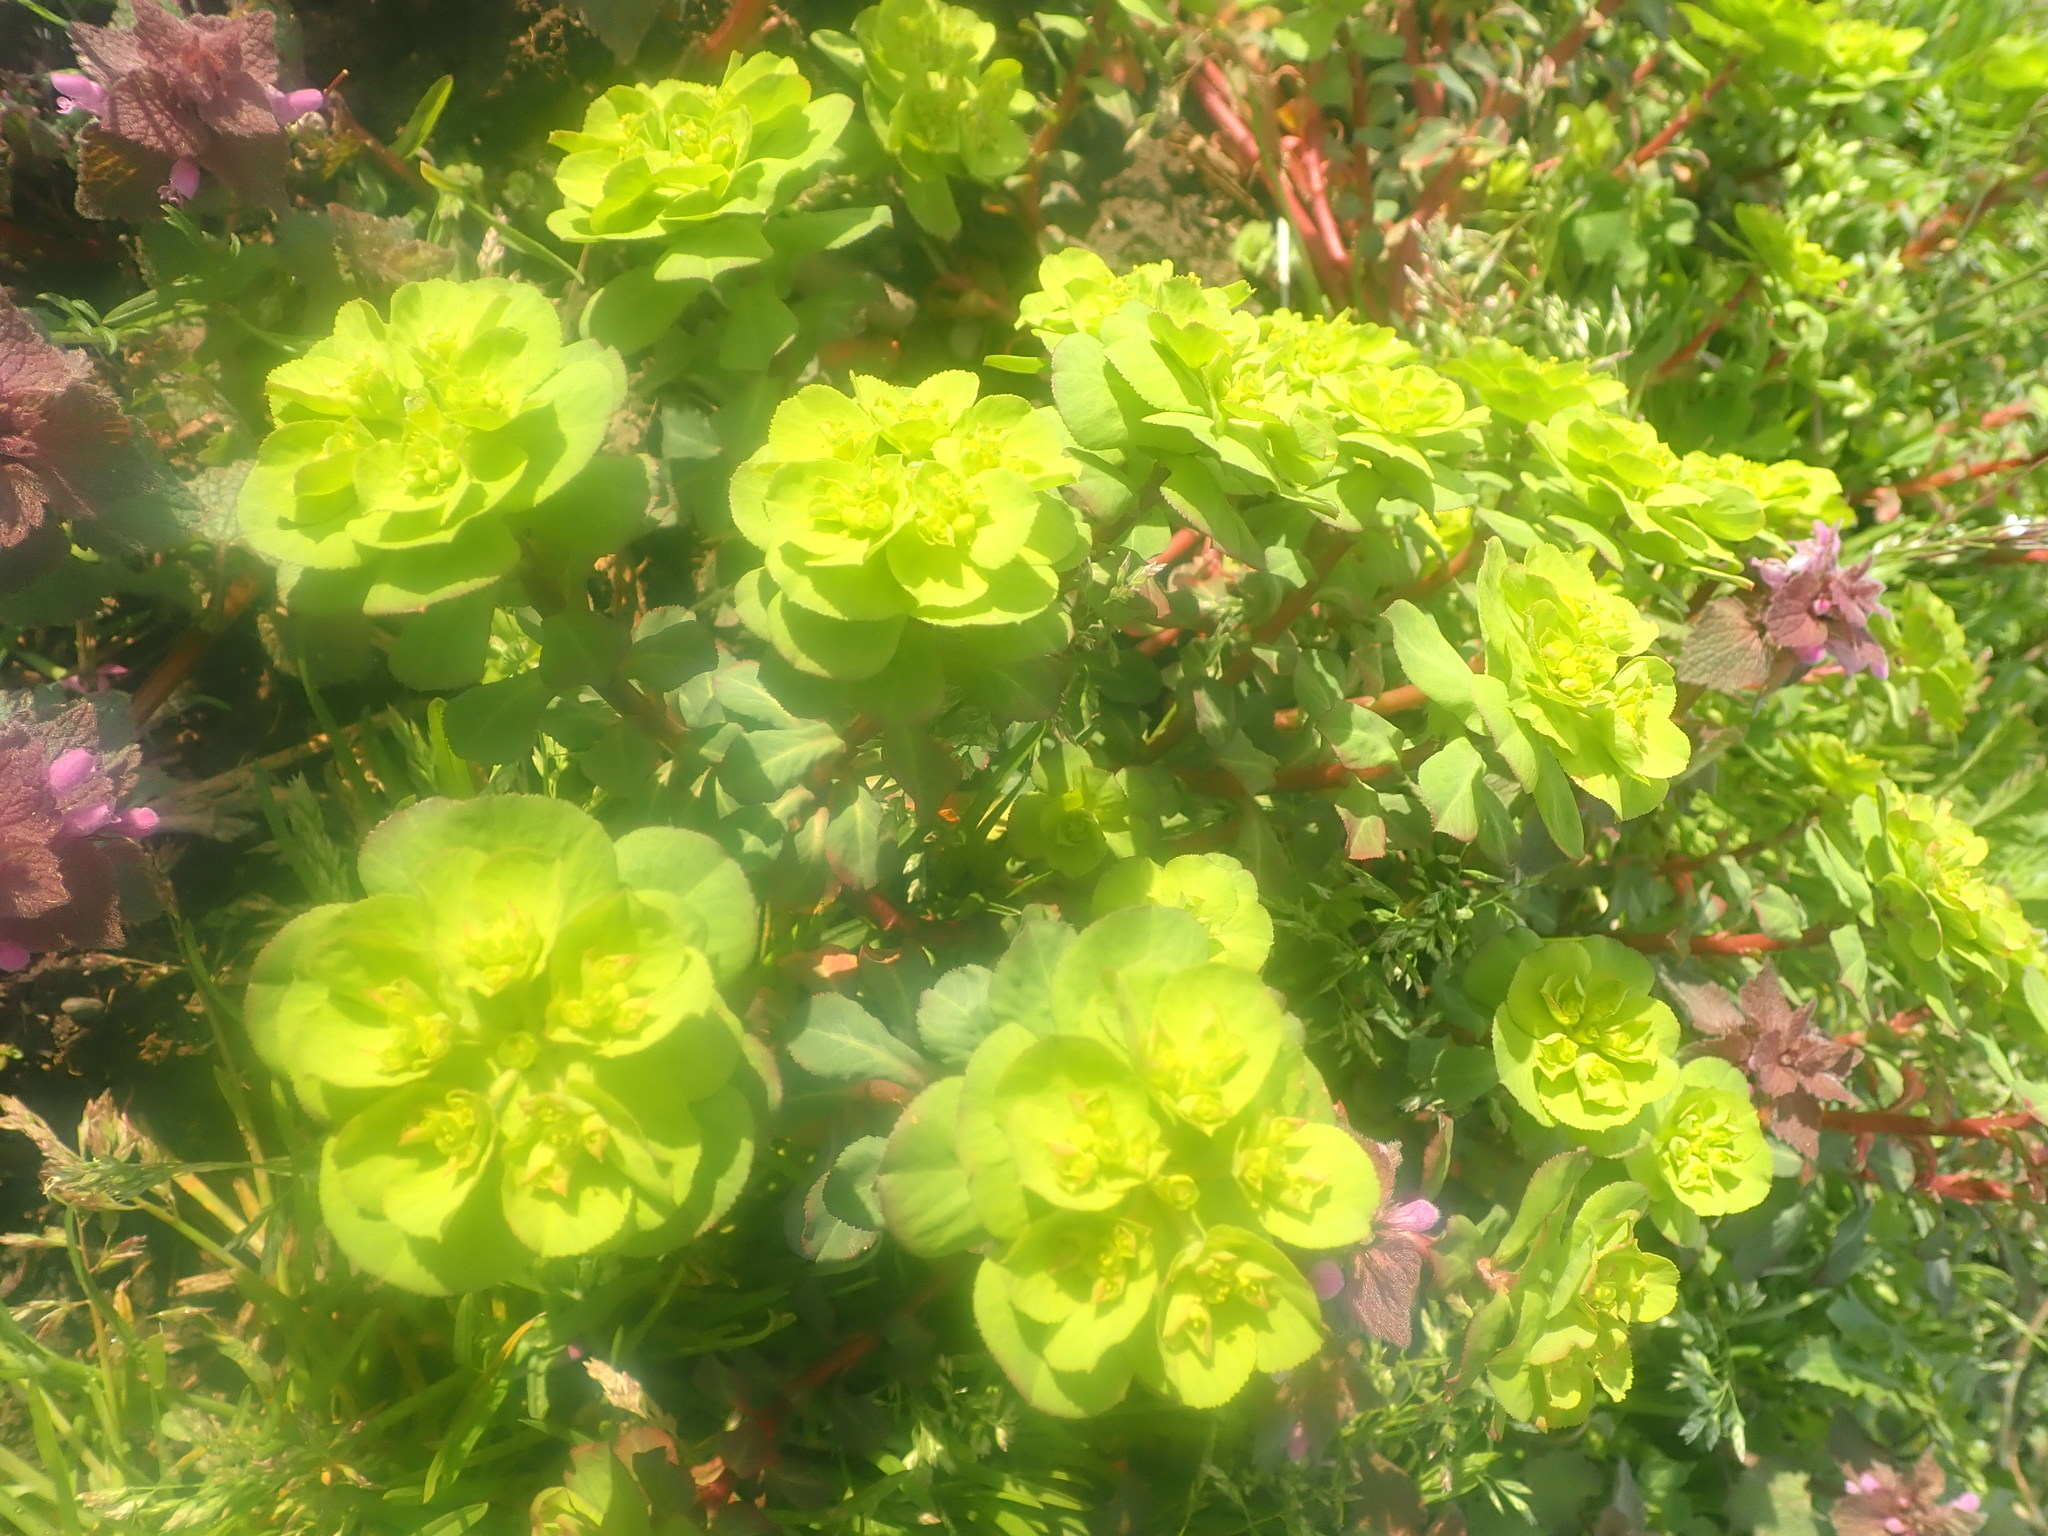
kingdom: Plantae
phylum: Tracheophyta
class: Magnoliopsida
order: Malpighiales
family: Euphorbiaceae
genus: Euphorbia
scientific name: Euphorbia helioscopia
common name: Sun spurge
